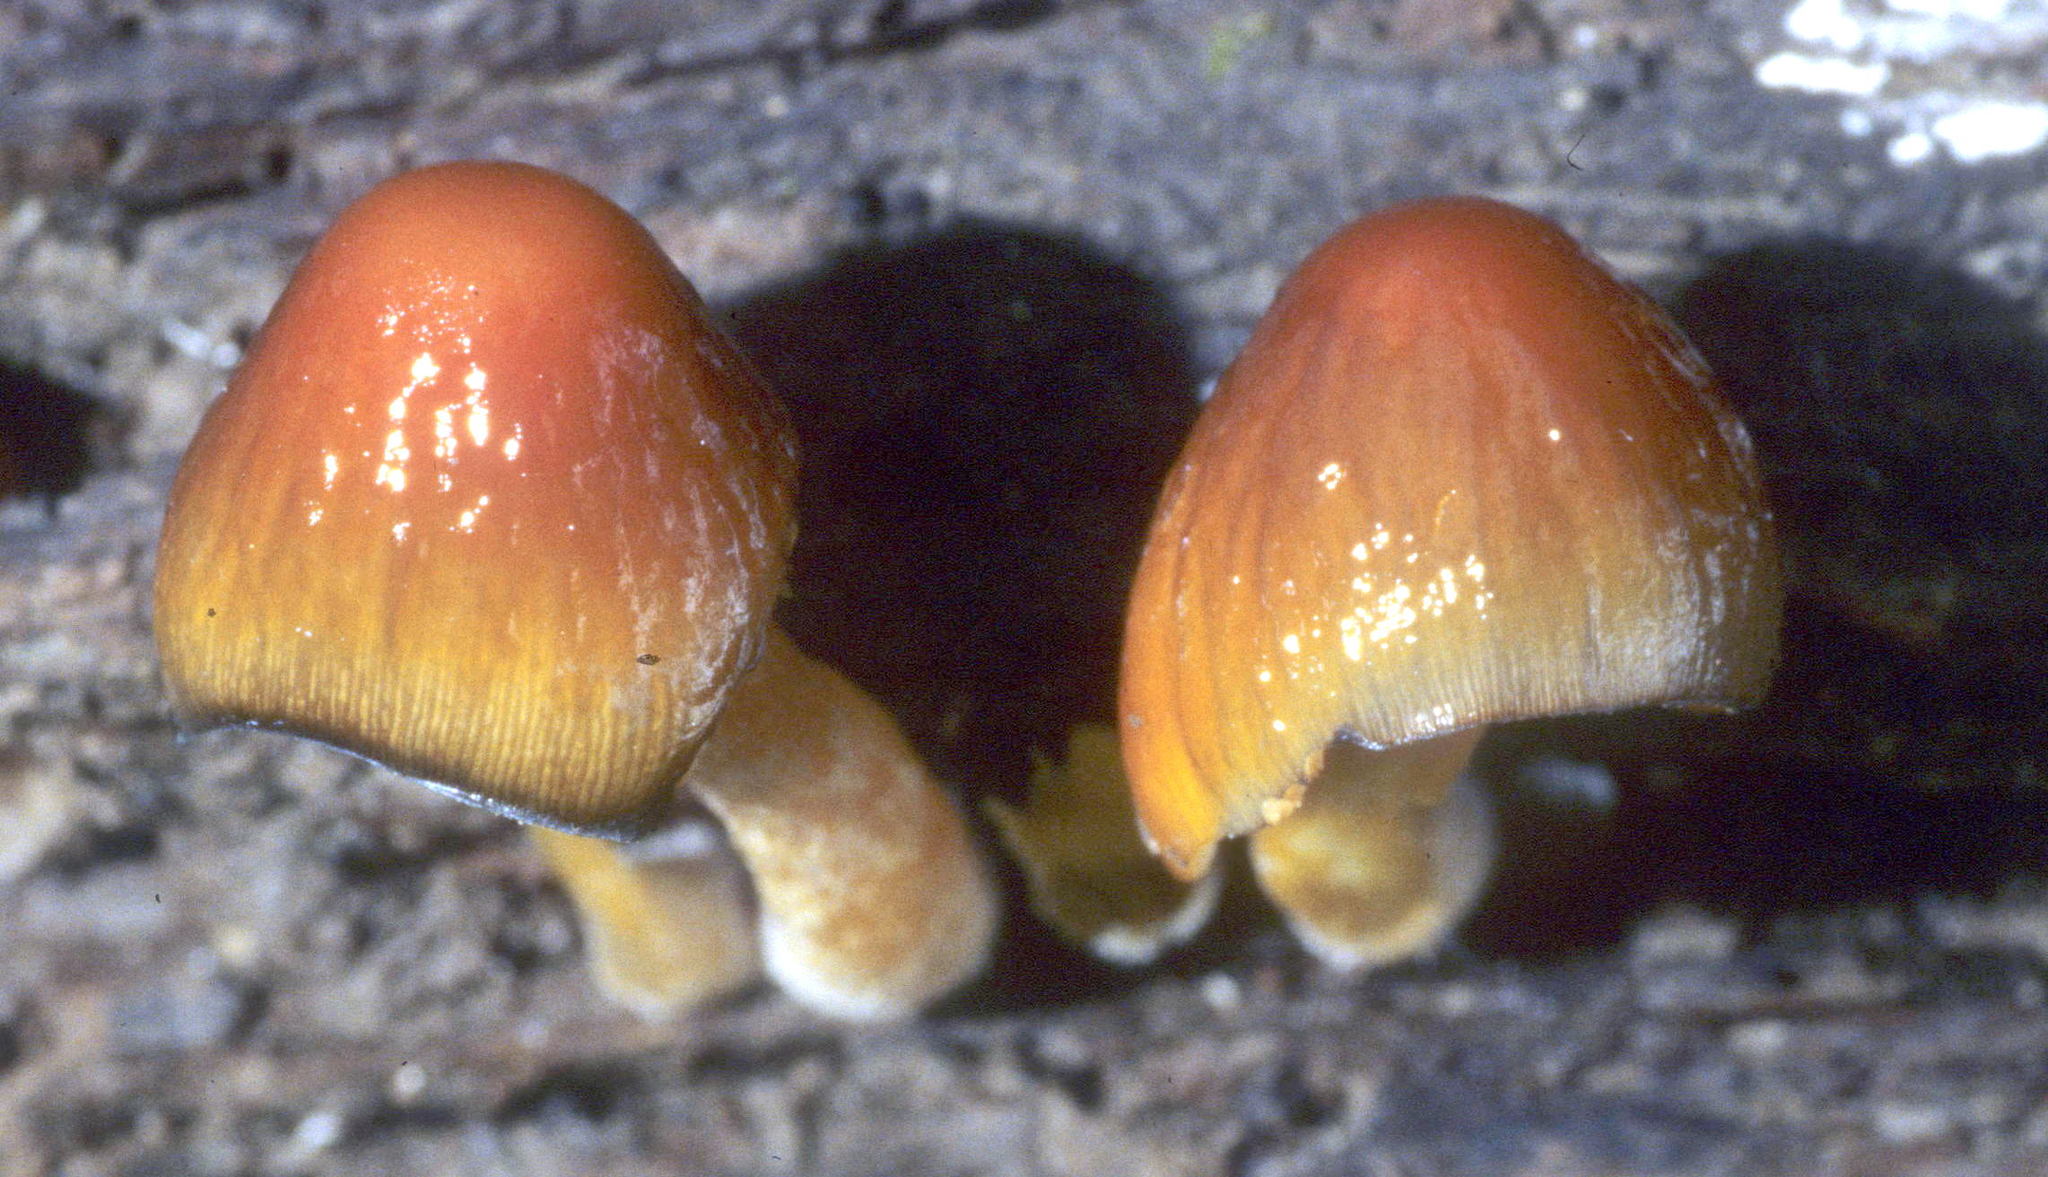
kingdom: Fungi
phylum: Basidiomycota
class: Agaricomycetes
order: Agaricales
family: Bolbitiaceae
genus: Bolbitius
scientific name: Bolbitius callistus
